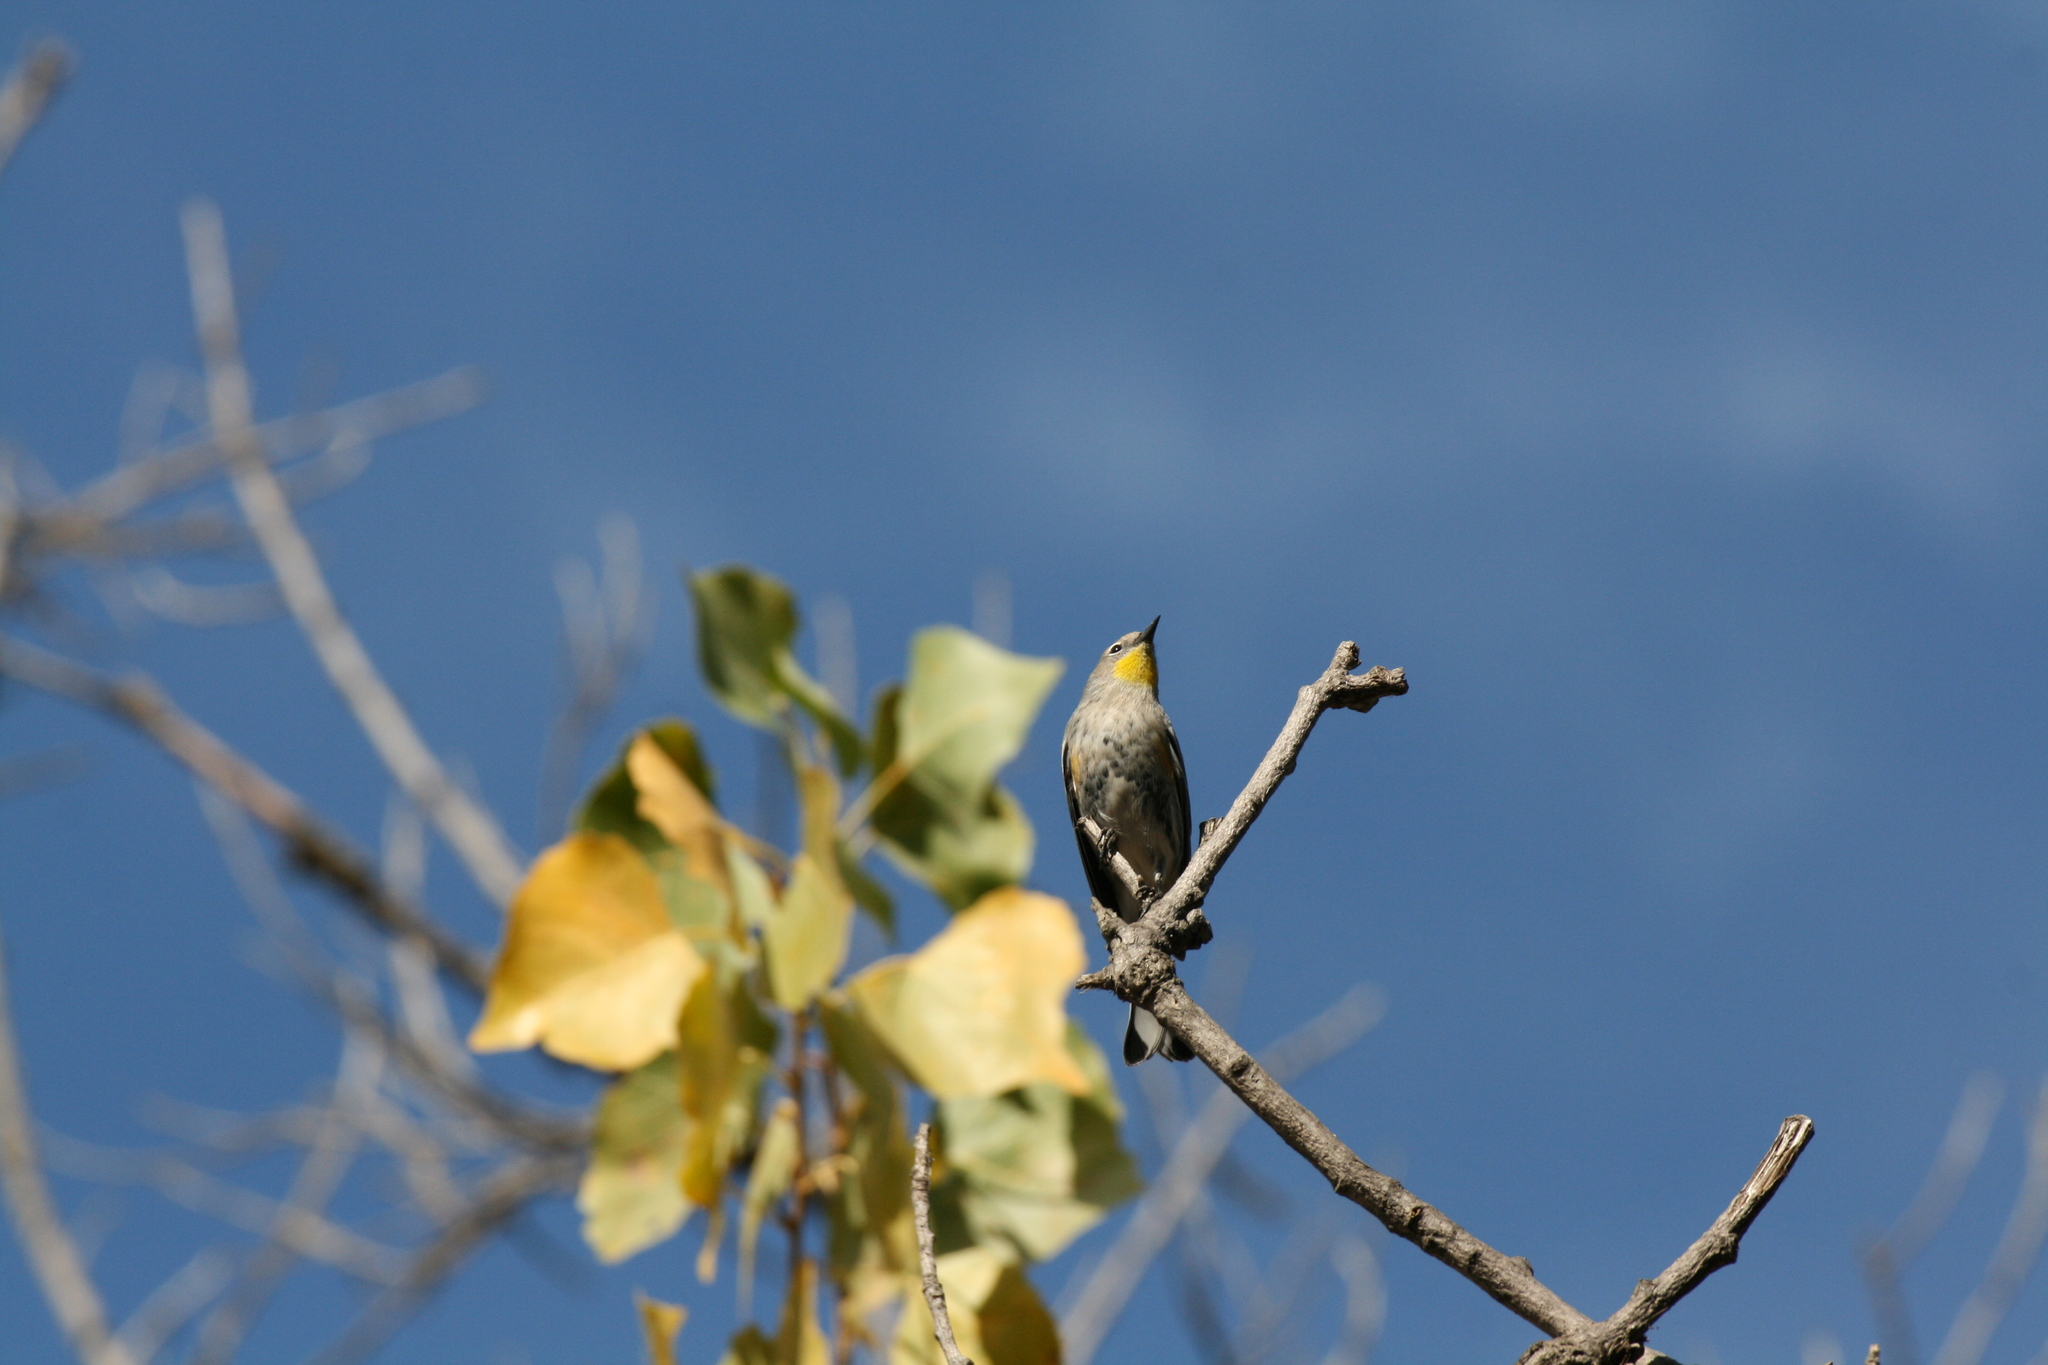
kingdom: Animalia
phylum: Chordata
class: Aves
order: Passeriformes
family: Parulidae
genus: Setophaga
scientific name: Setophaga coronata
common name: Myrtle warbler
